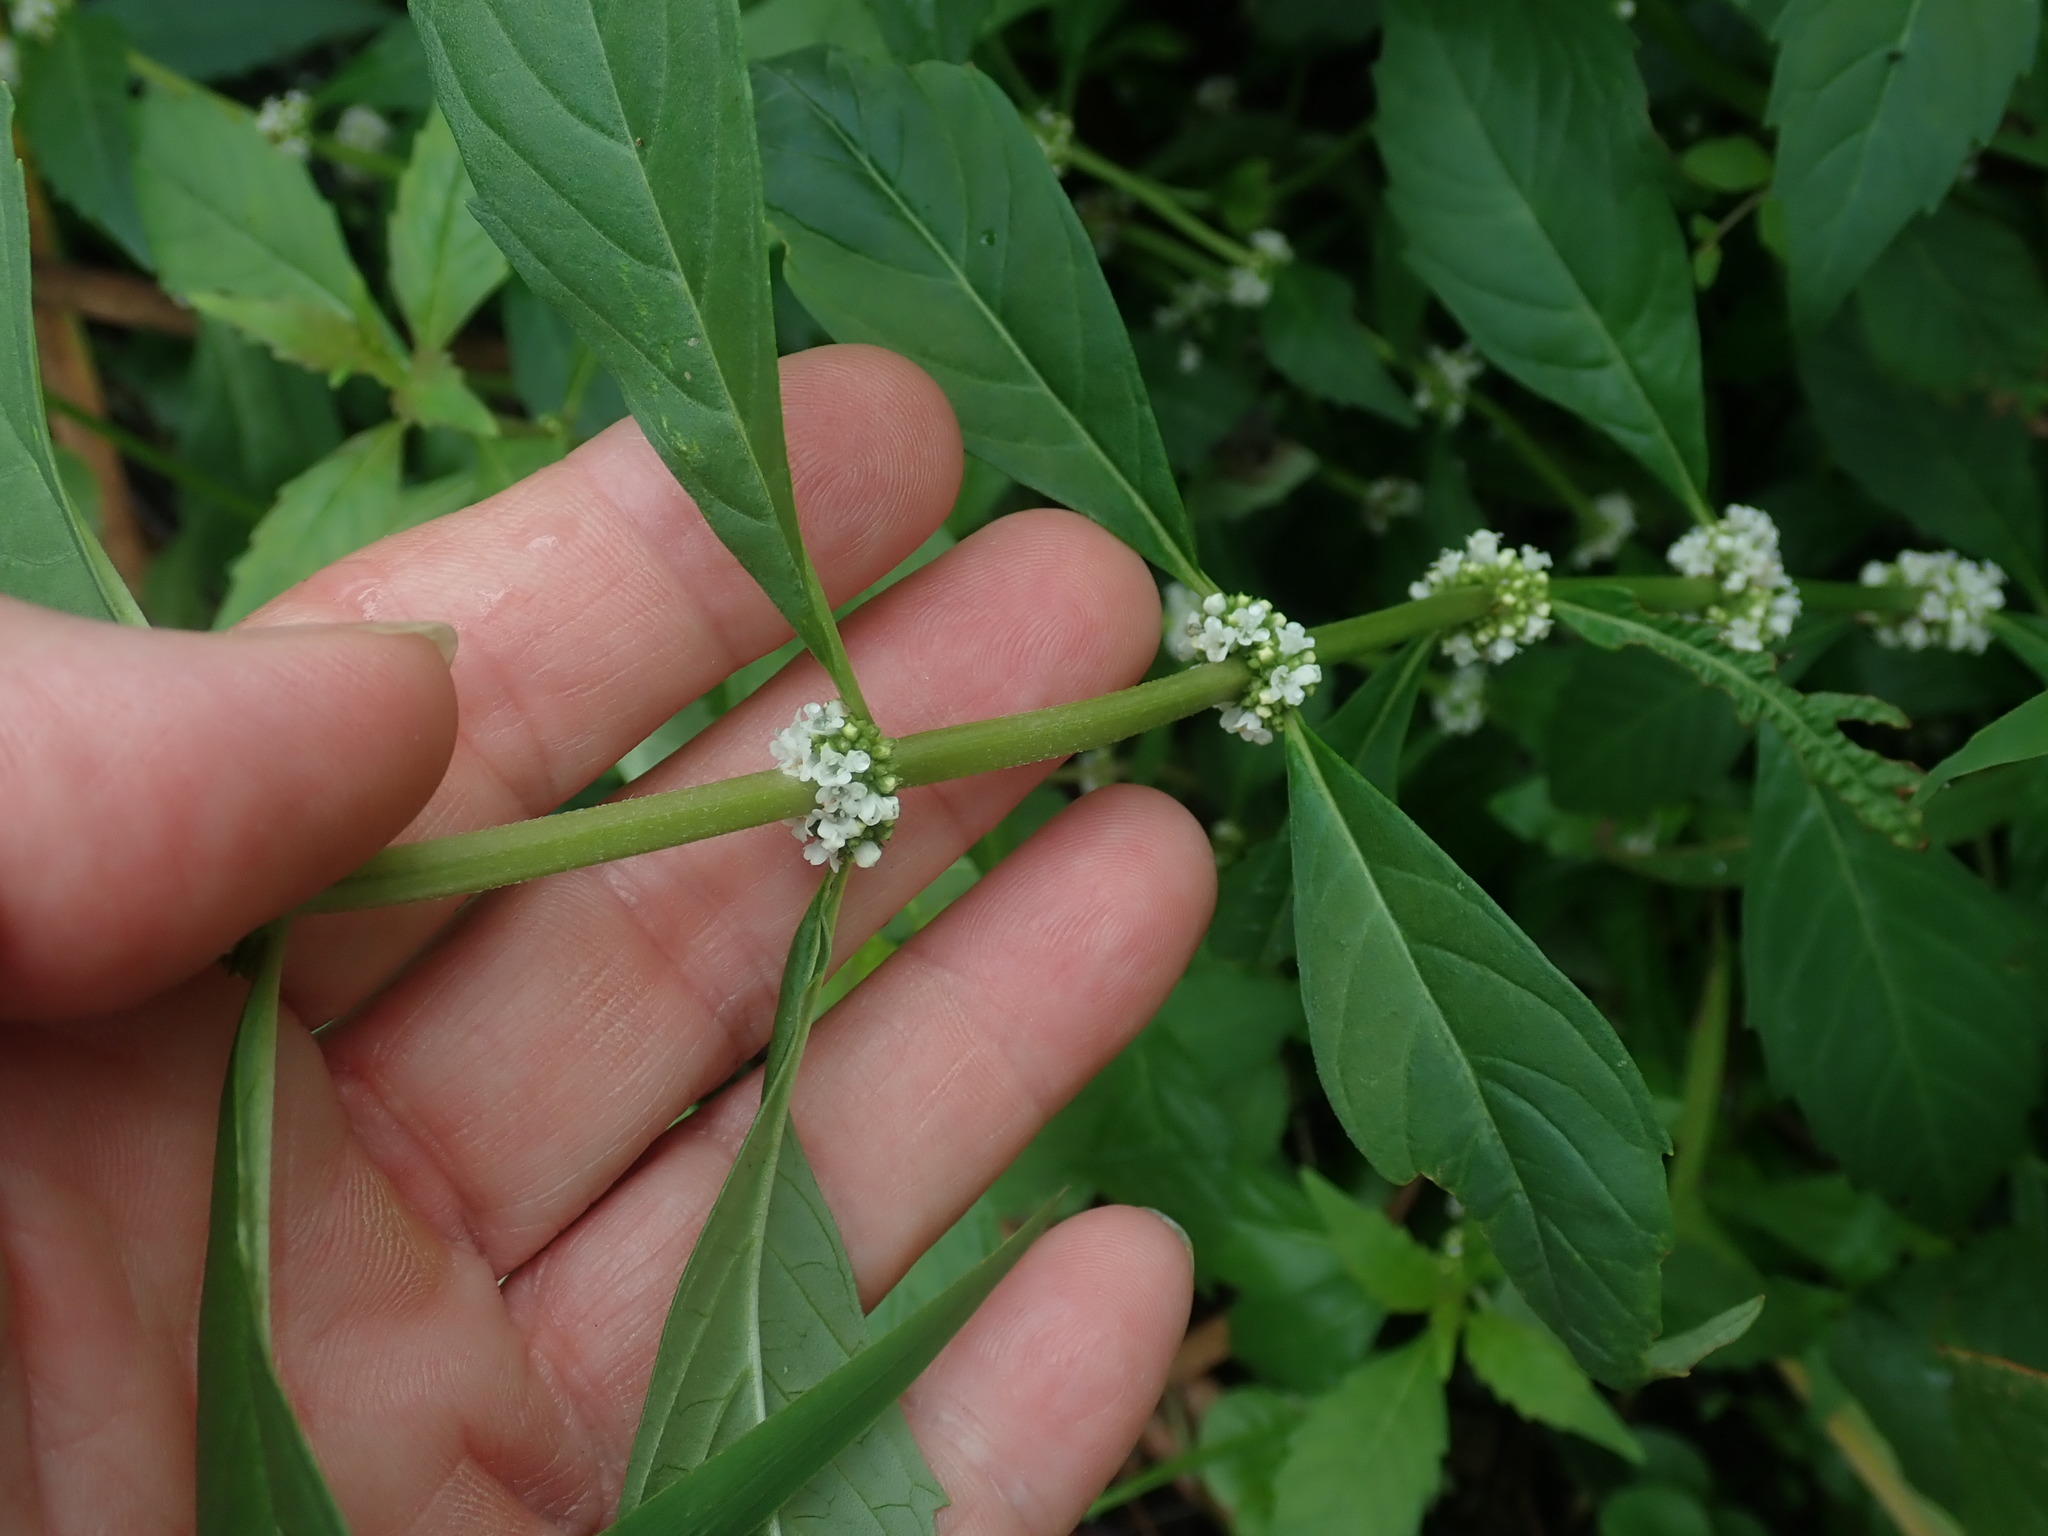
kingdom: Plantae
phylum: Tracheophyta
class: Magnoliopsida
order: Lamiales
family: Lamiaceae
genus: Lycopus
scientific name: Lycopus uniflorus
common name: Northern bugleweed
